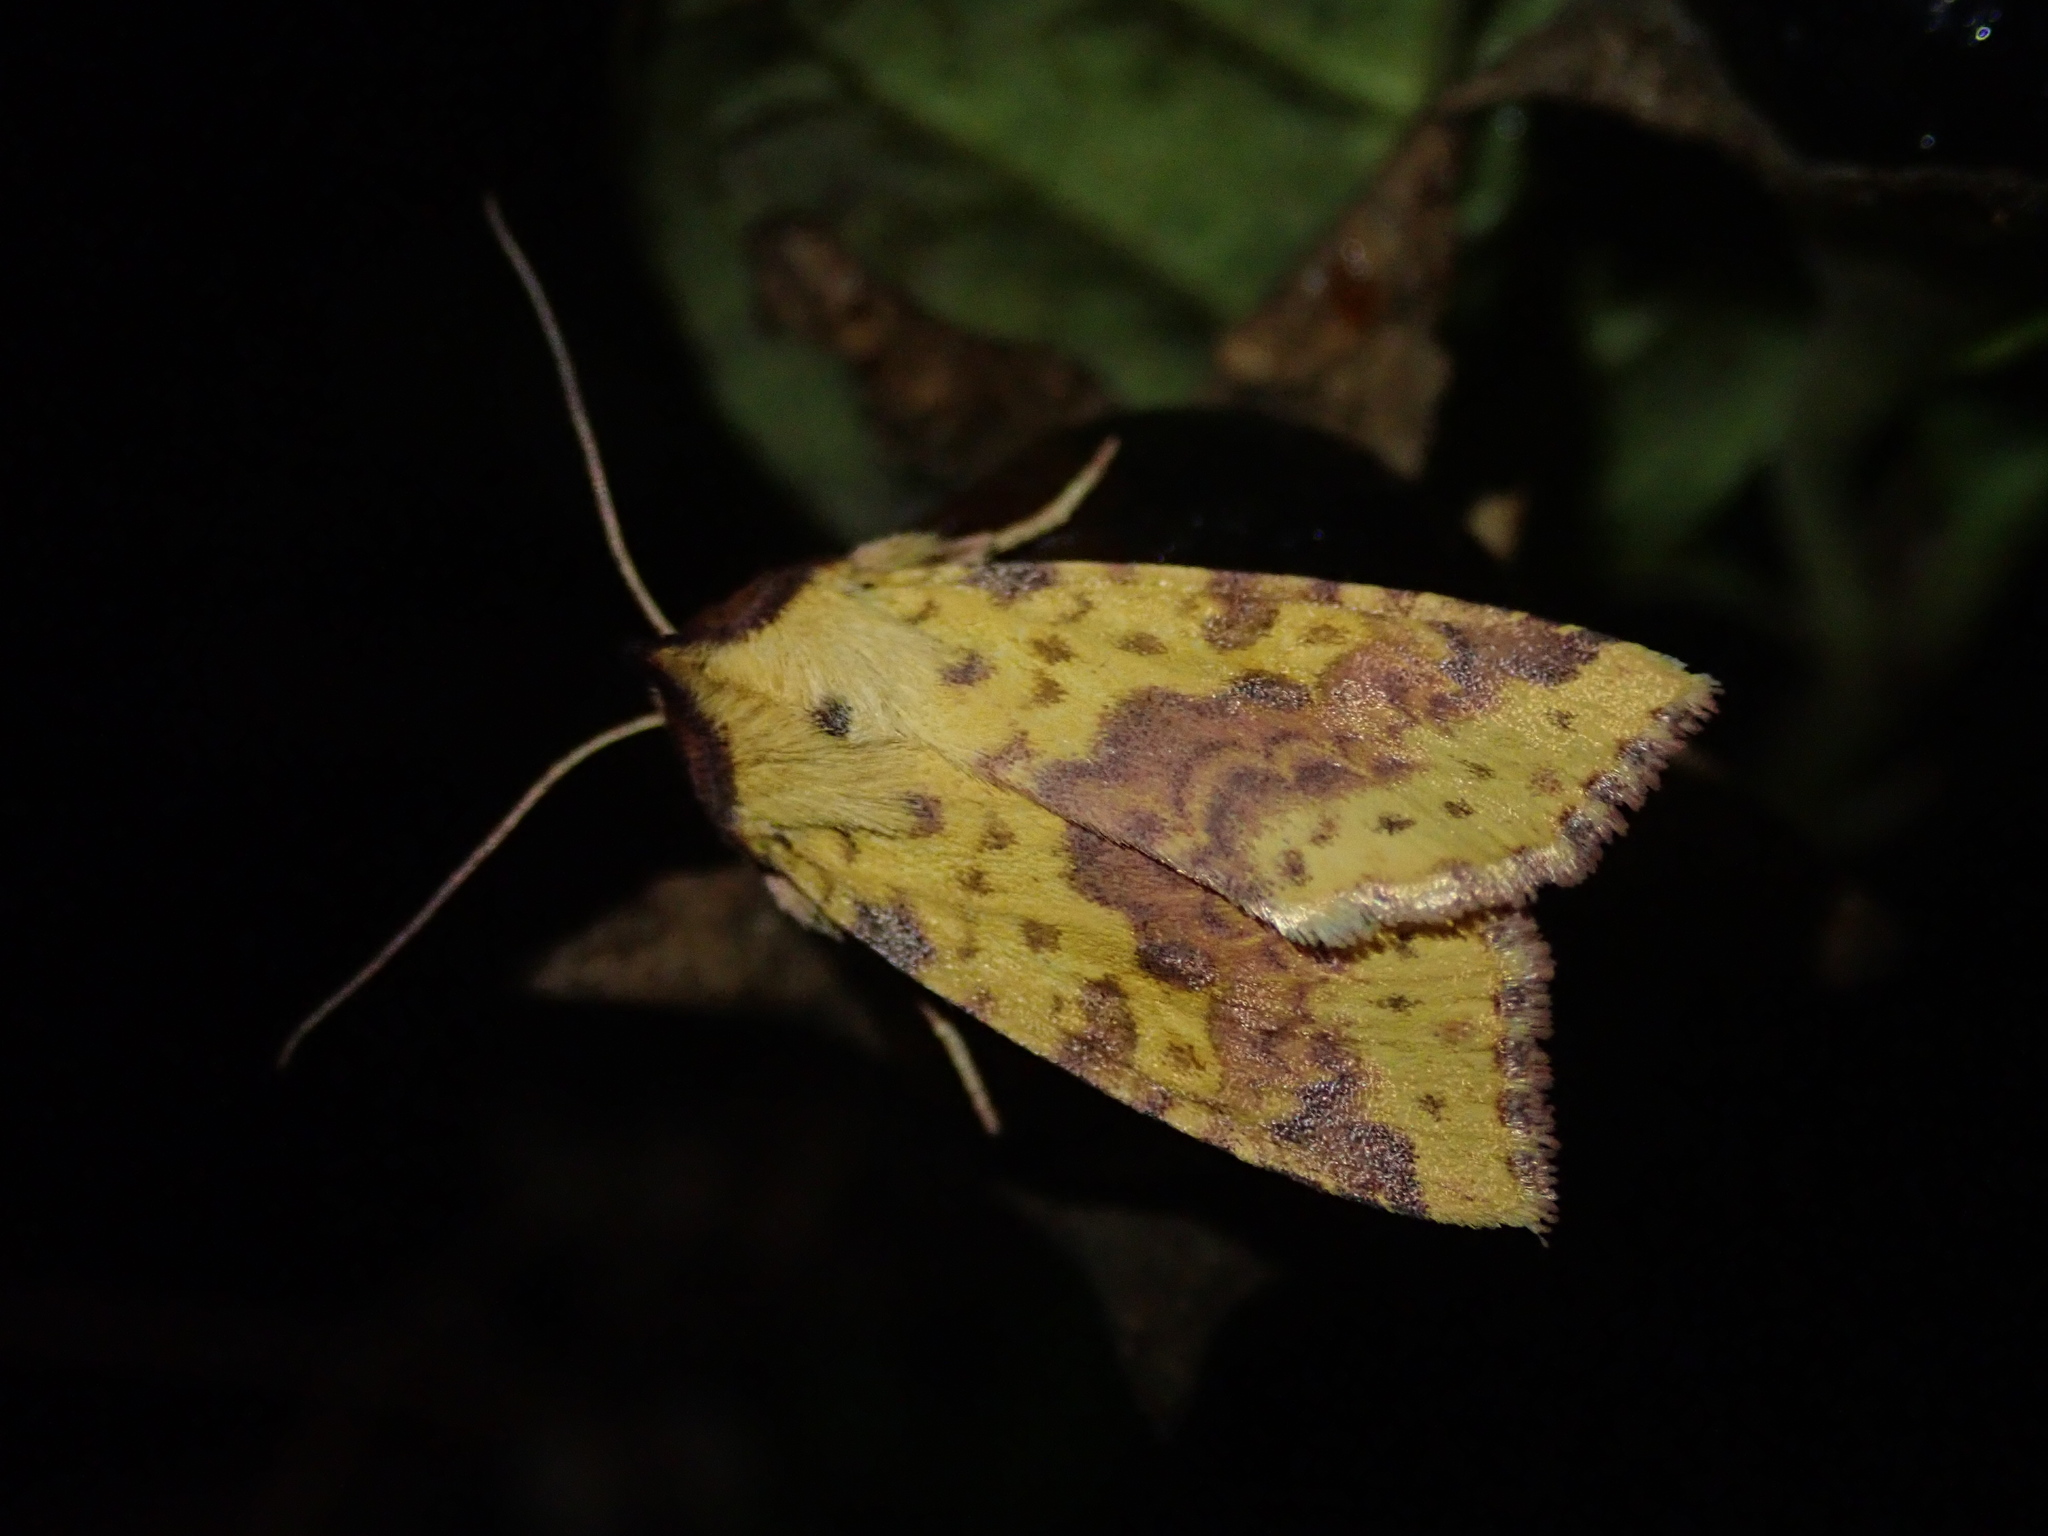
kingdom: Animalia
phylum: Arthropoda
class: Insecta
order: Lepidoptera
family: Noctuidae
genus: Xanthia
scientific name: Xanthia togata
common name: Pink-barred sallow
